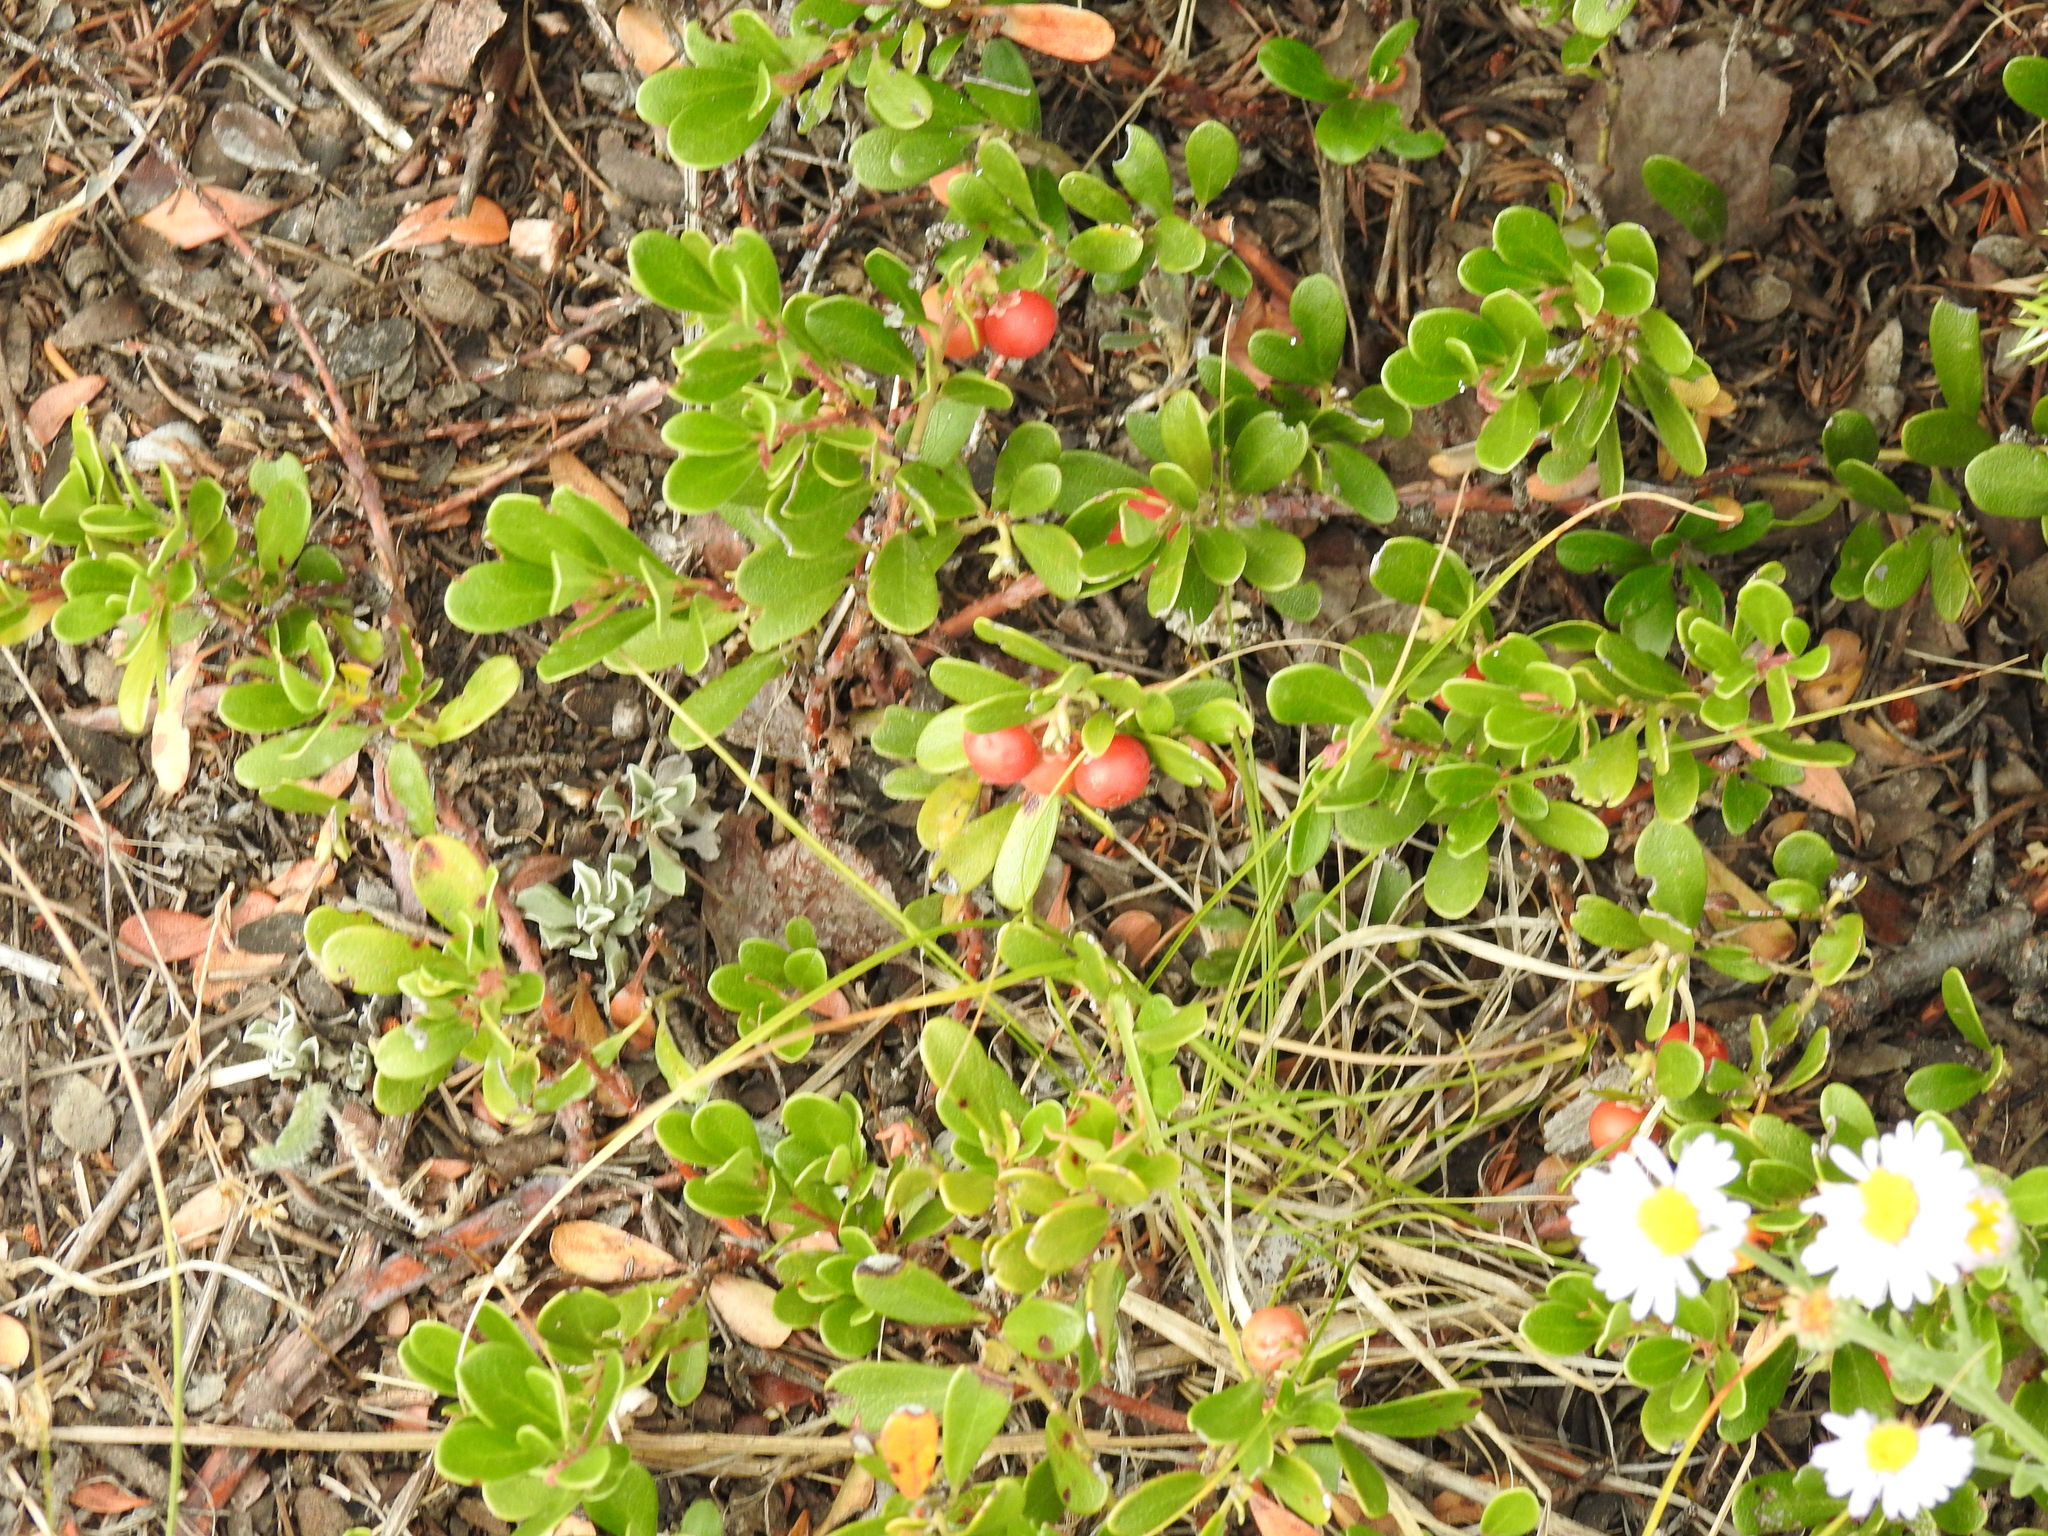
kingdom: Plantae
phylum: Tracheophyta
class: Magnoliopsida
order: Ericales
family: Ericaceae
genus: Arctostaphylos
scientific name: Arctostaphylos uva-ursi
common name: Bearberry
